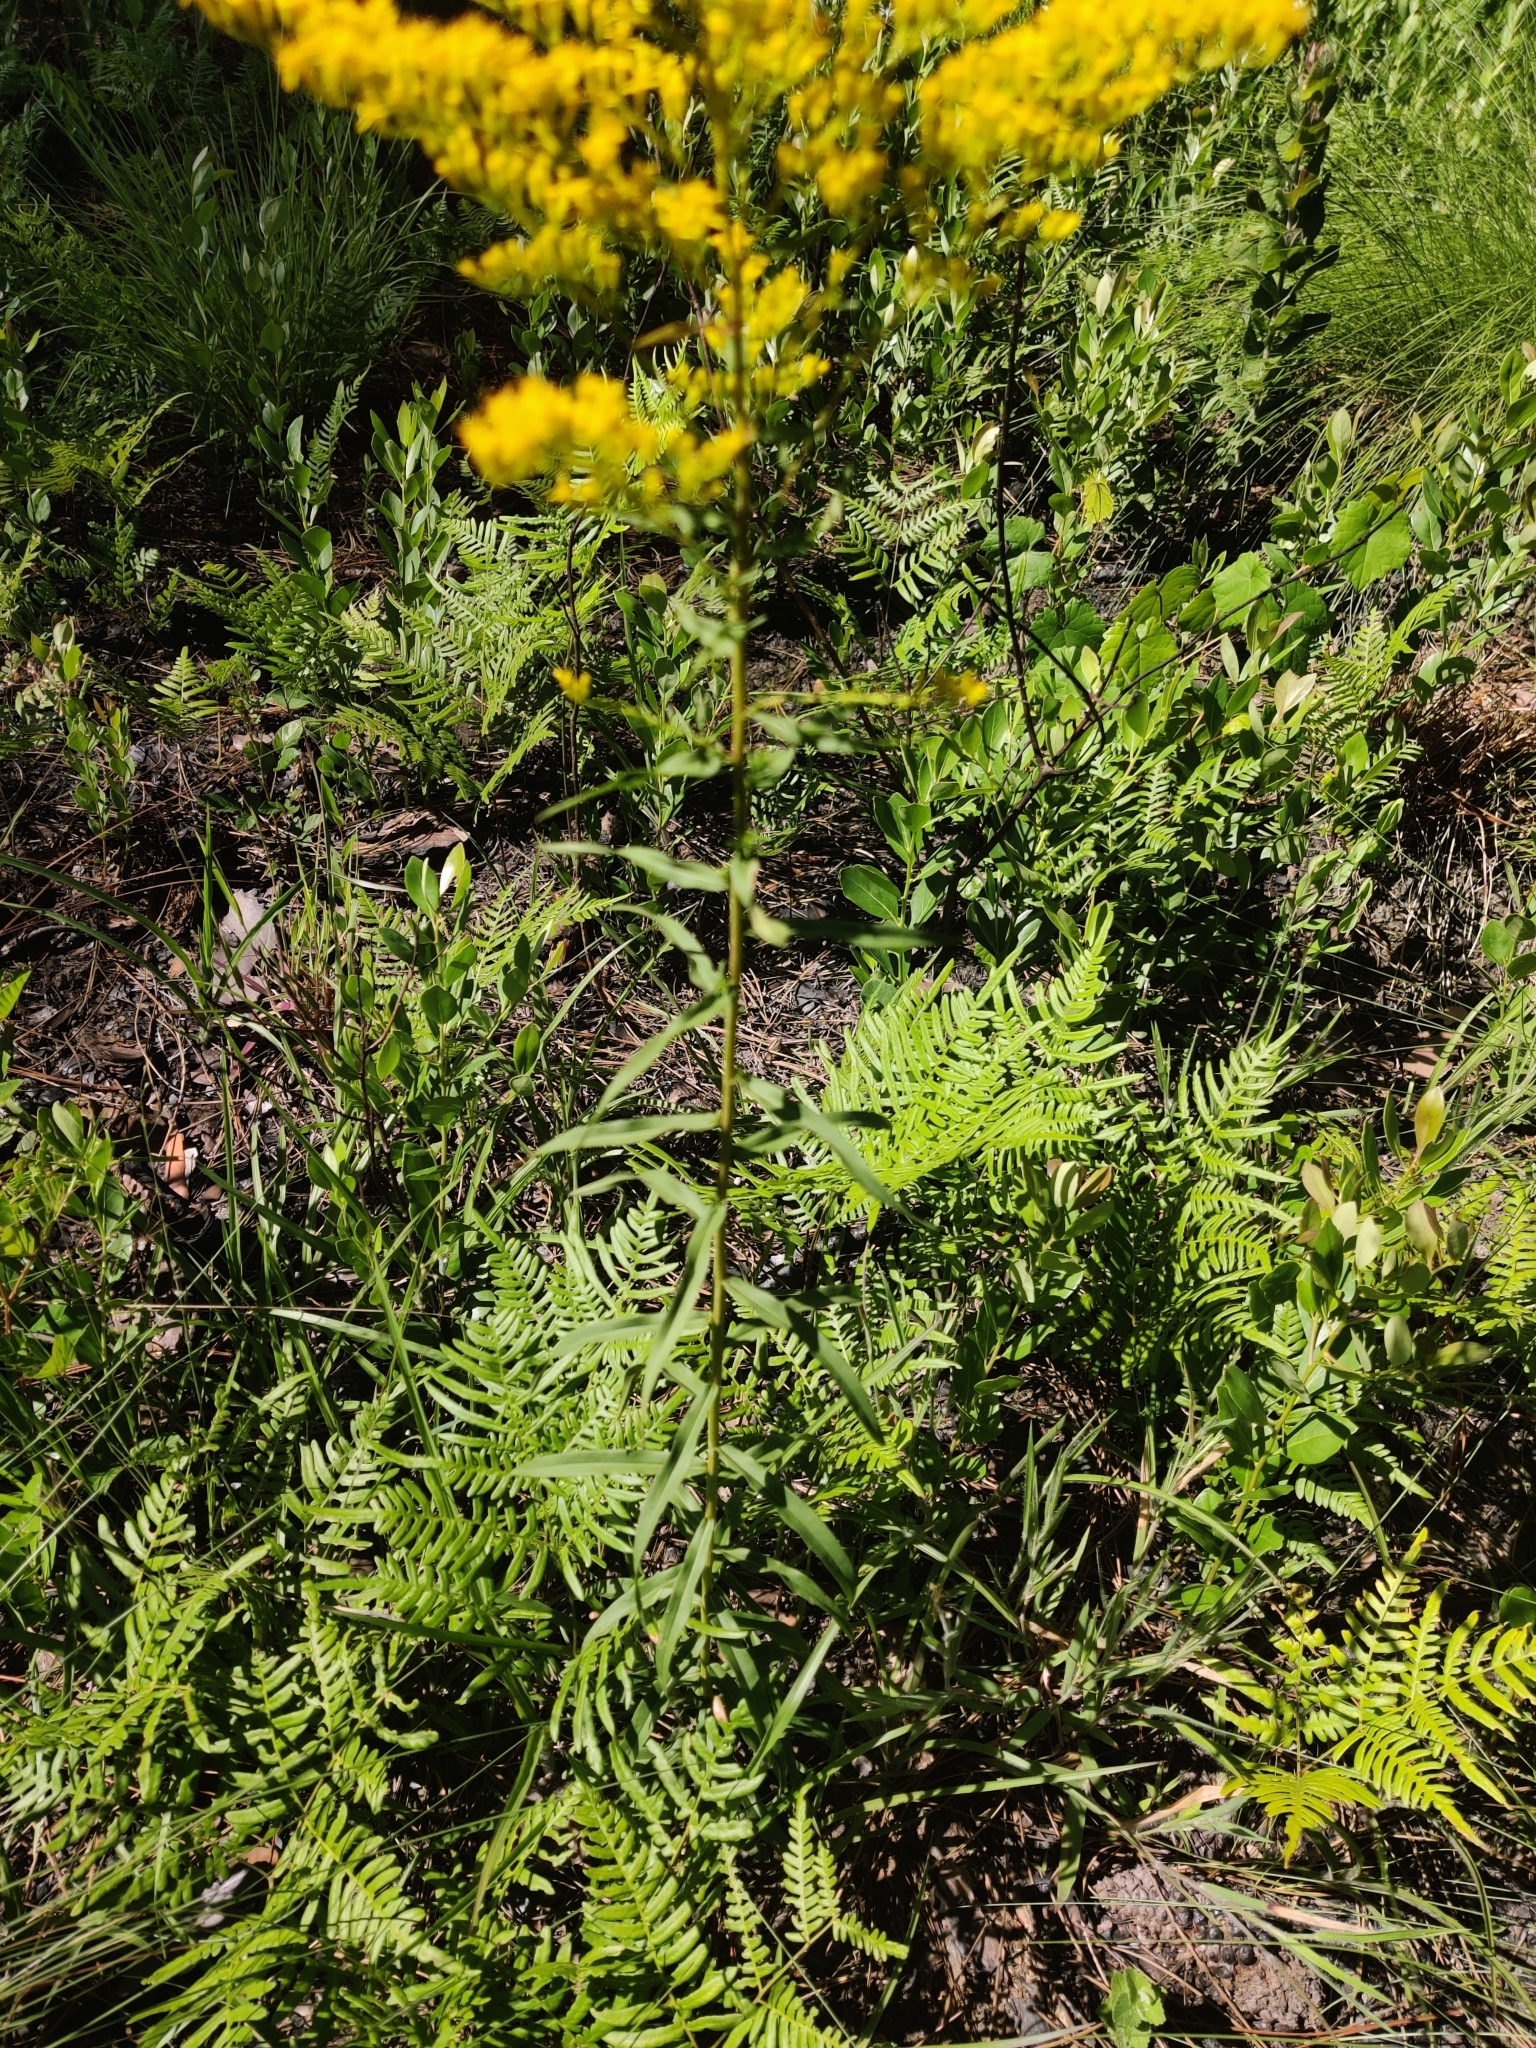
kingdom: Plantae
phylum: Tracheophyta
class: Magnoliopsida
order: Asterales
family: Asteraceae
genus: Solidago
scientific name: Solidago odora
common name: Anise-scented goldenrod
